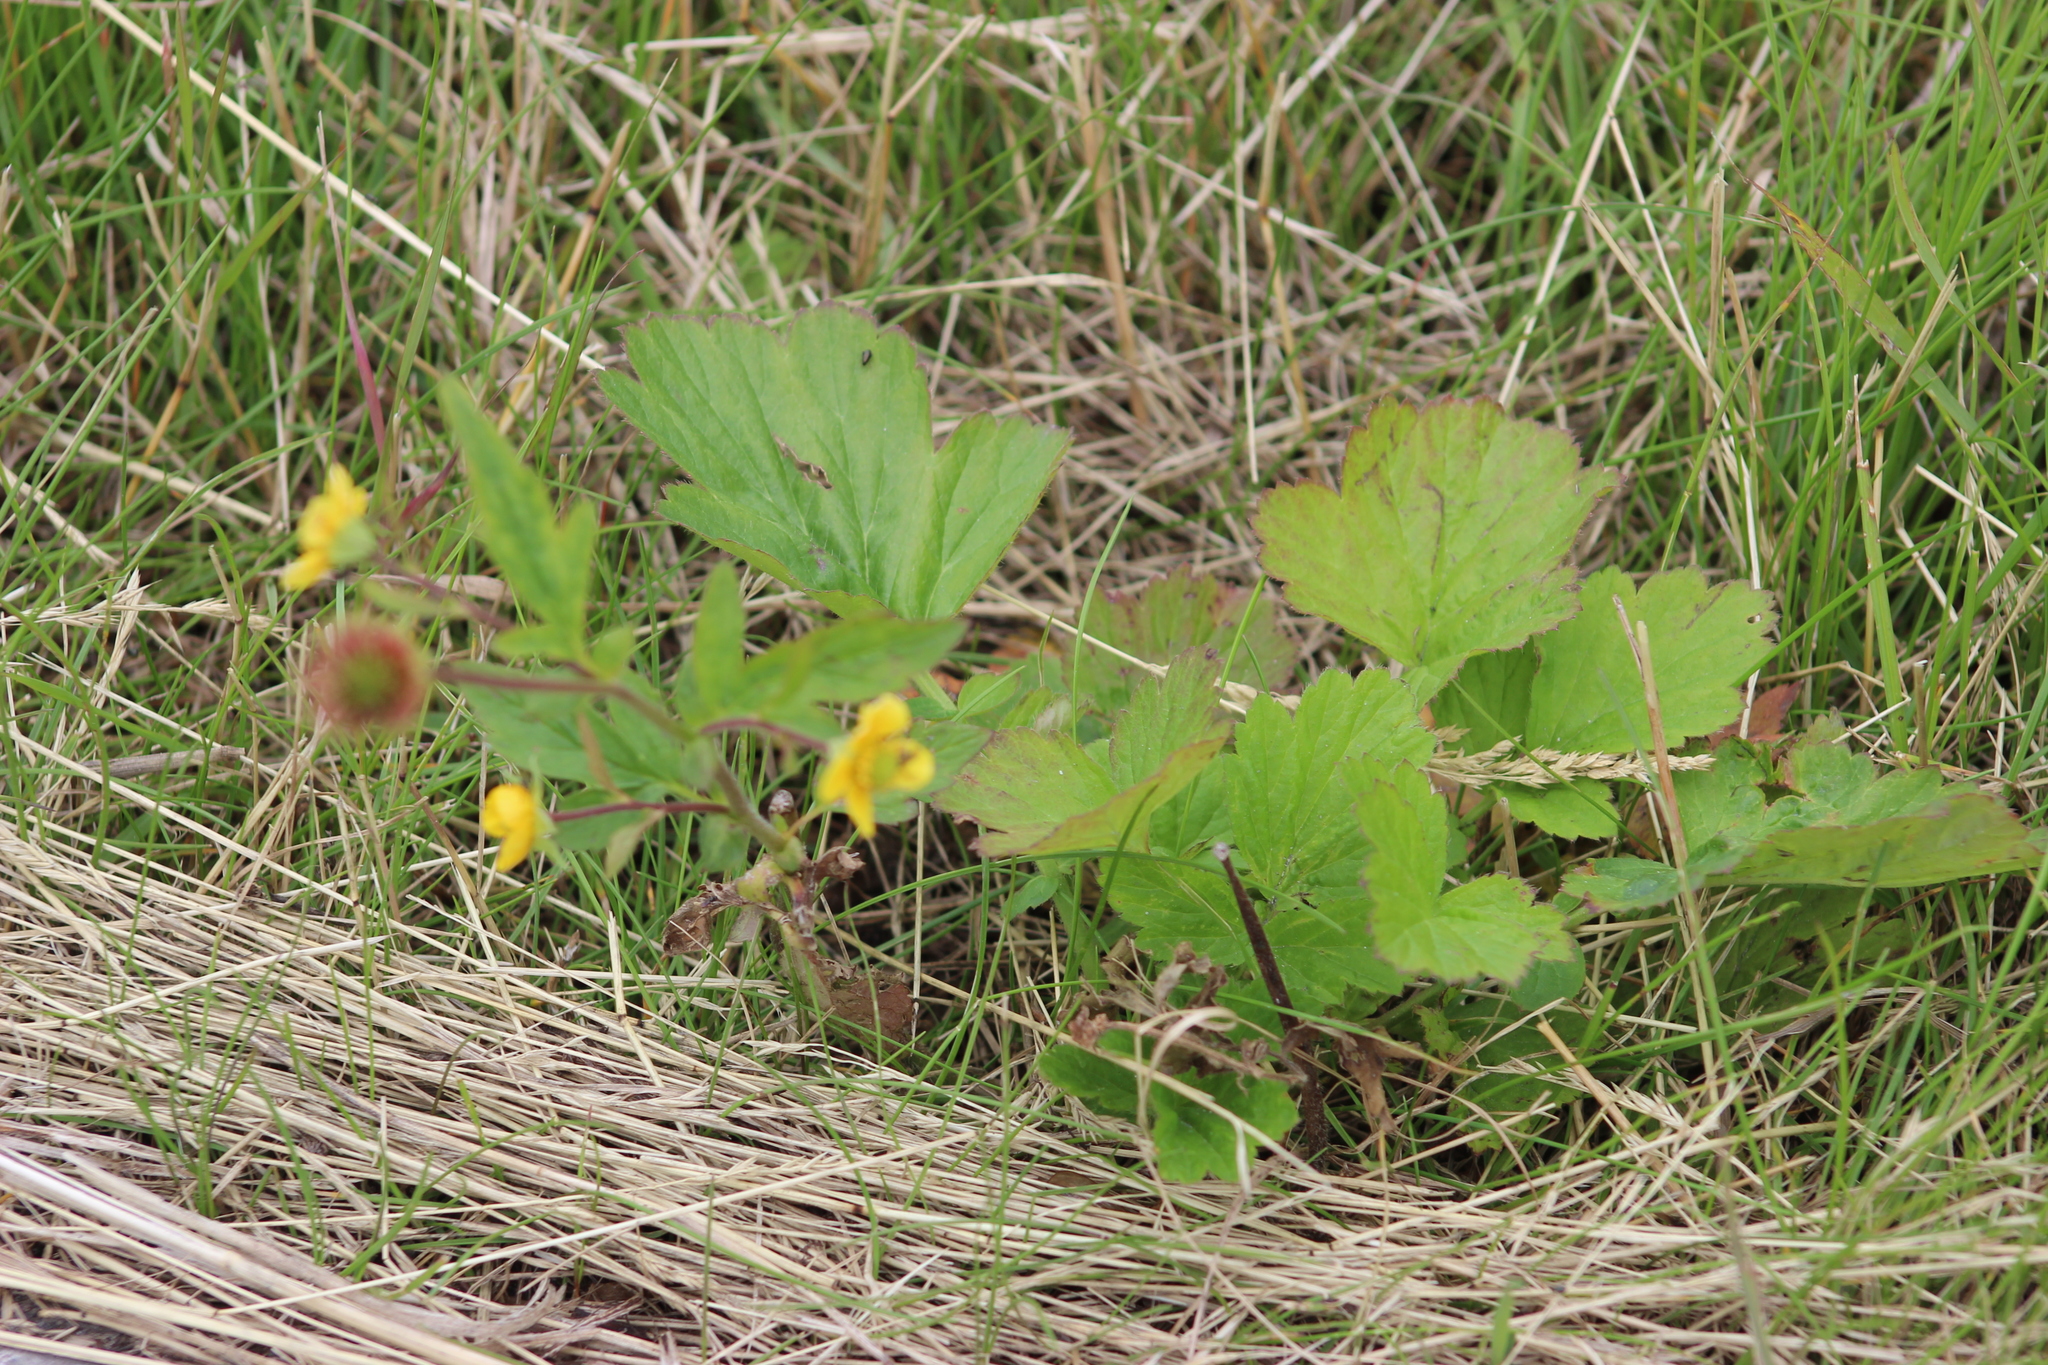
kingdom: Plantae
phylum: Tracheophyta
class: Magnoliopsida
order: Rosales
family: Rosaceae
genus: Geum
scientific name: Geum aleppicum
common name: Yellow avens
